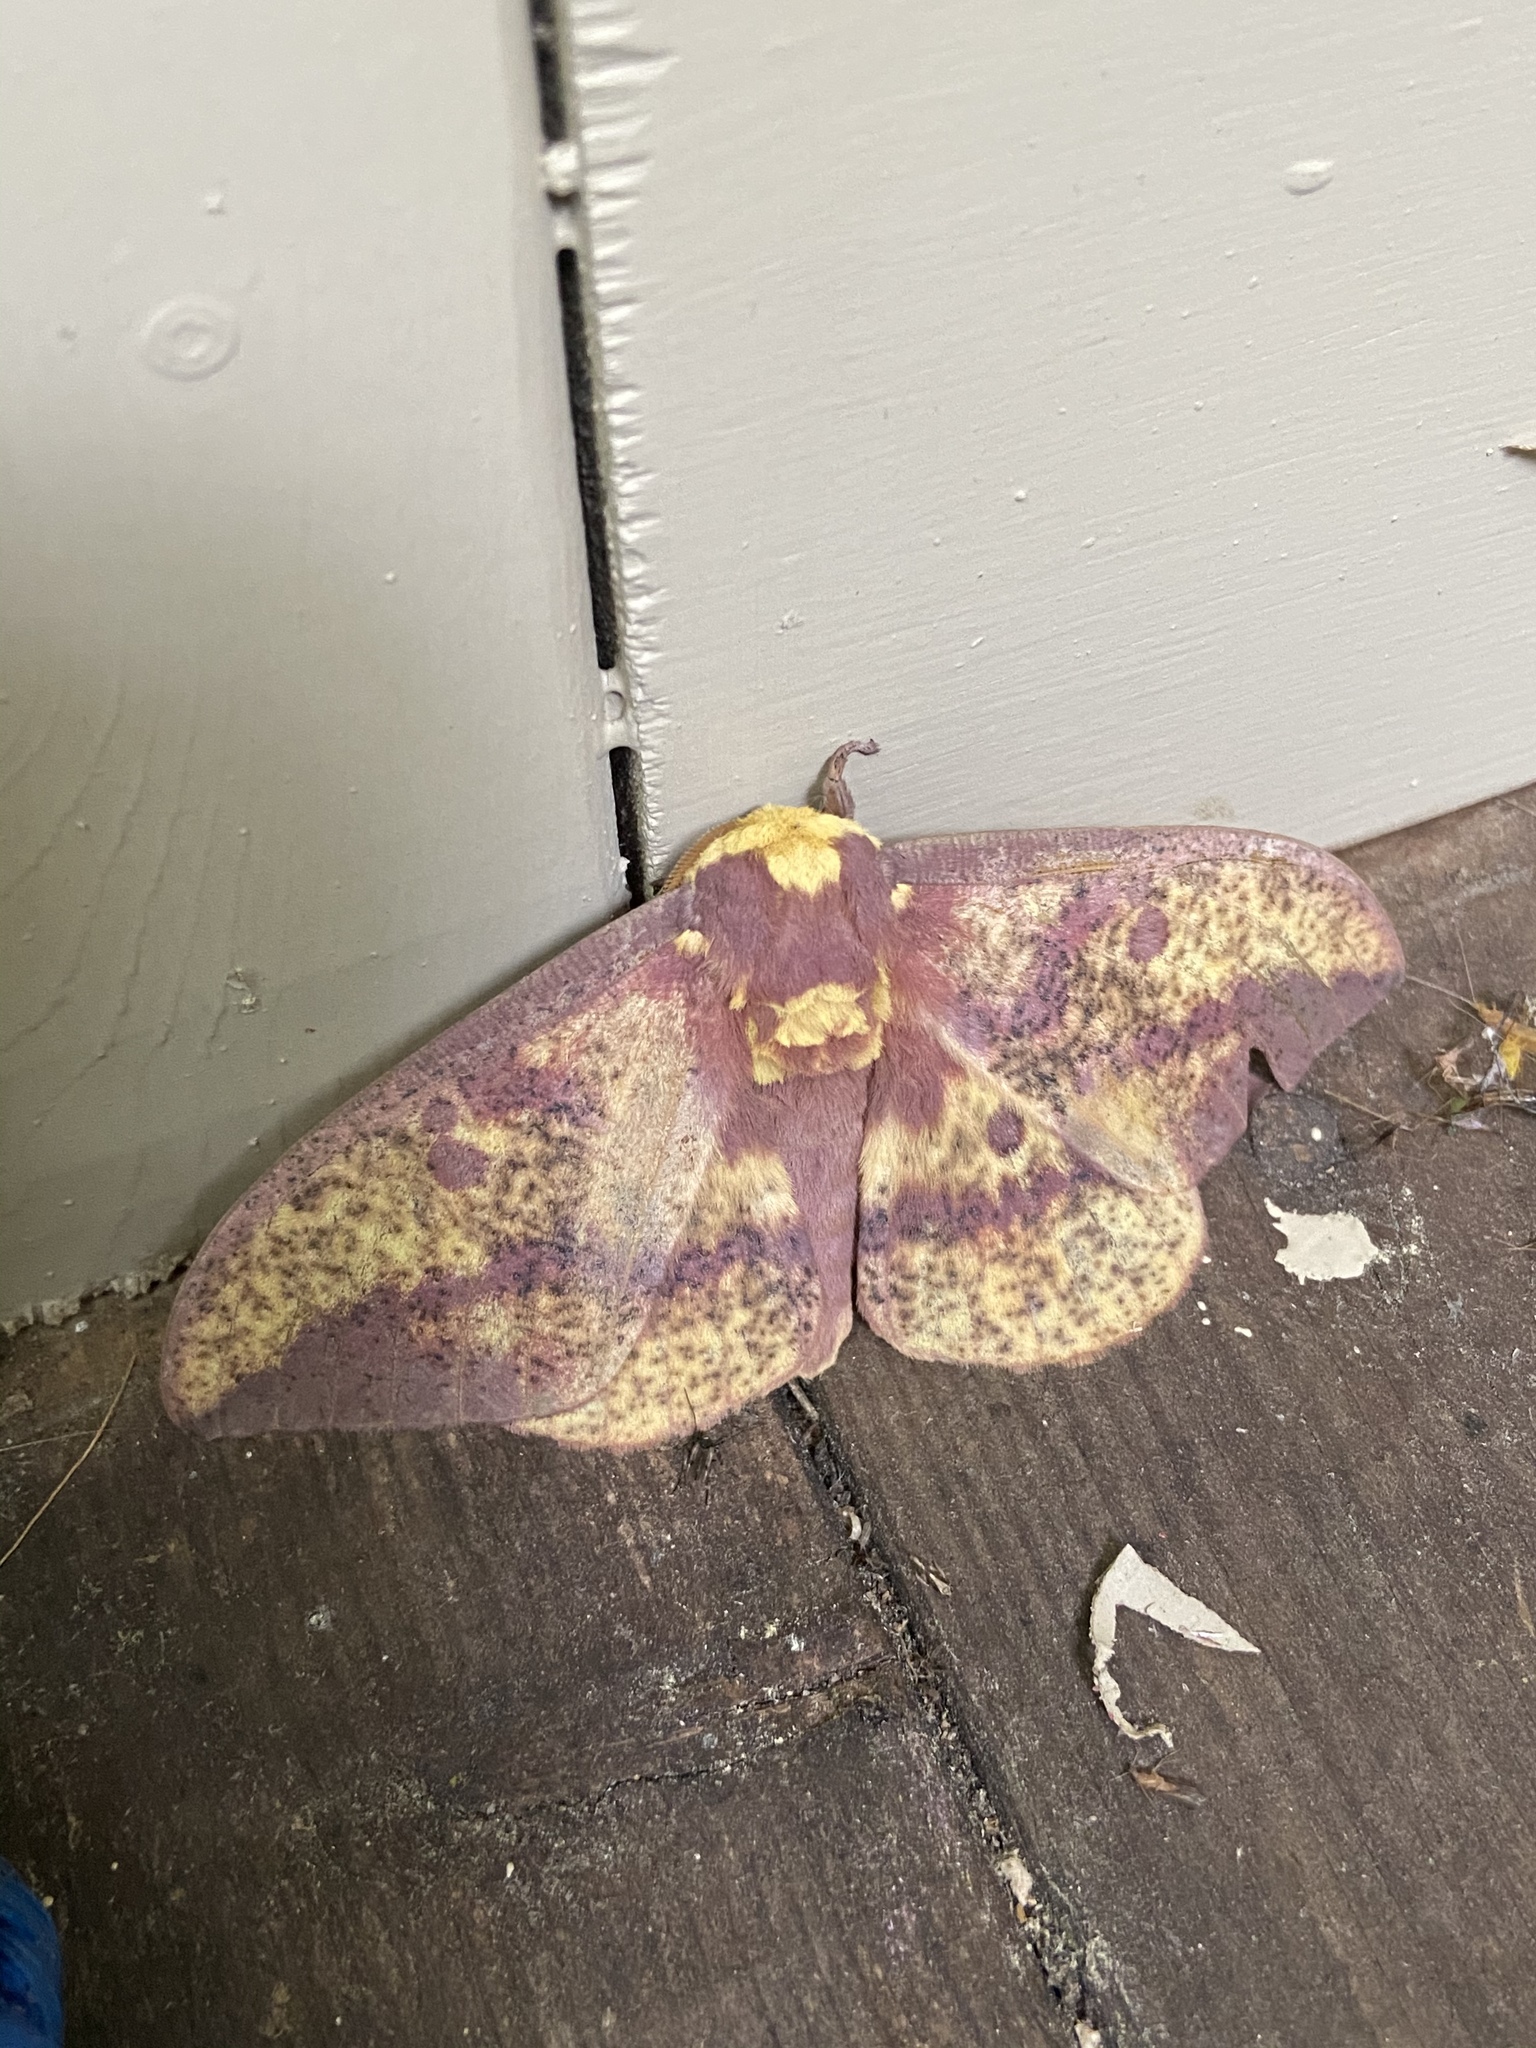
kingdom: Animalia
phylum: Arthropoda
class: Insecta
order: Lepidoptera
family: Saturniidae
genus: Eacles
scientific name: Eacles
